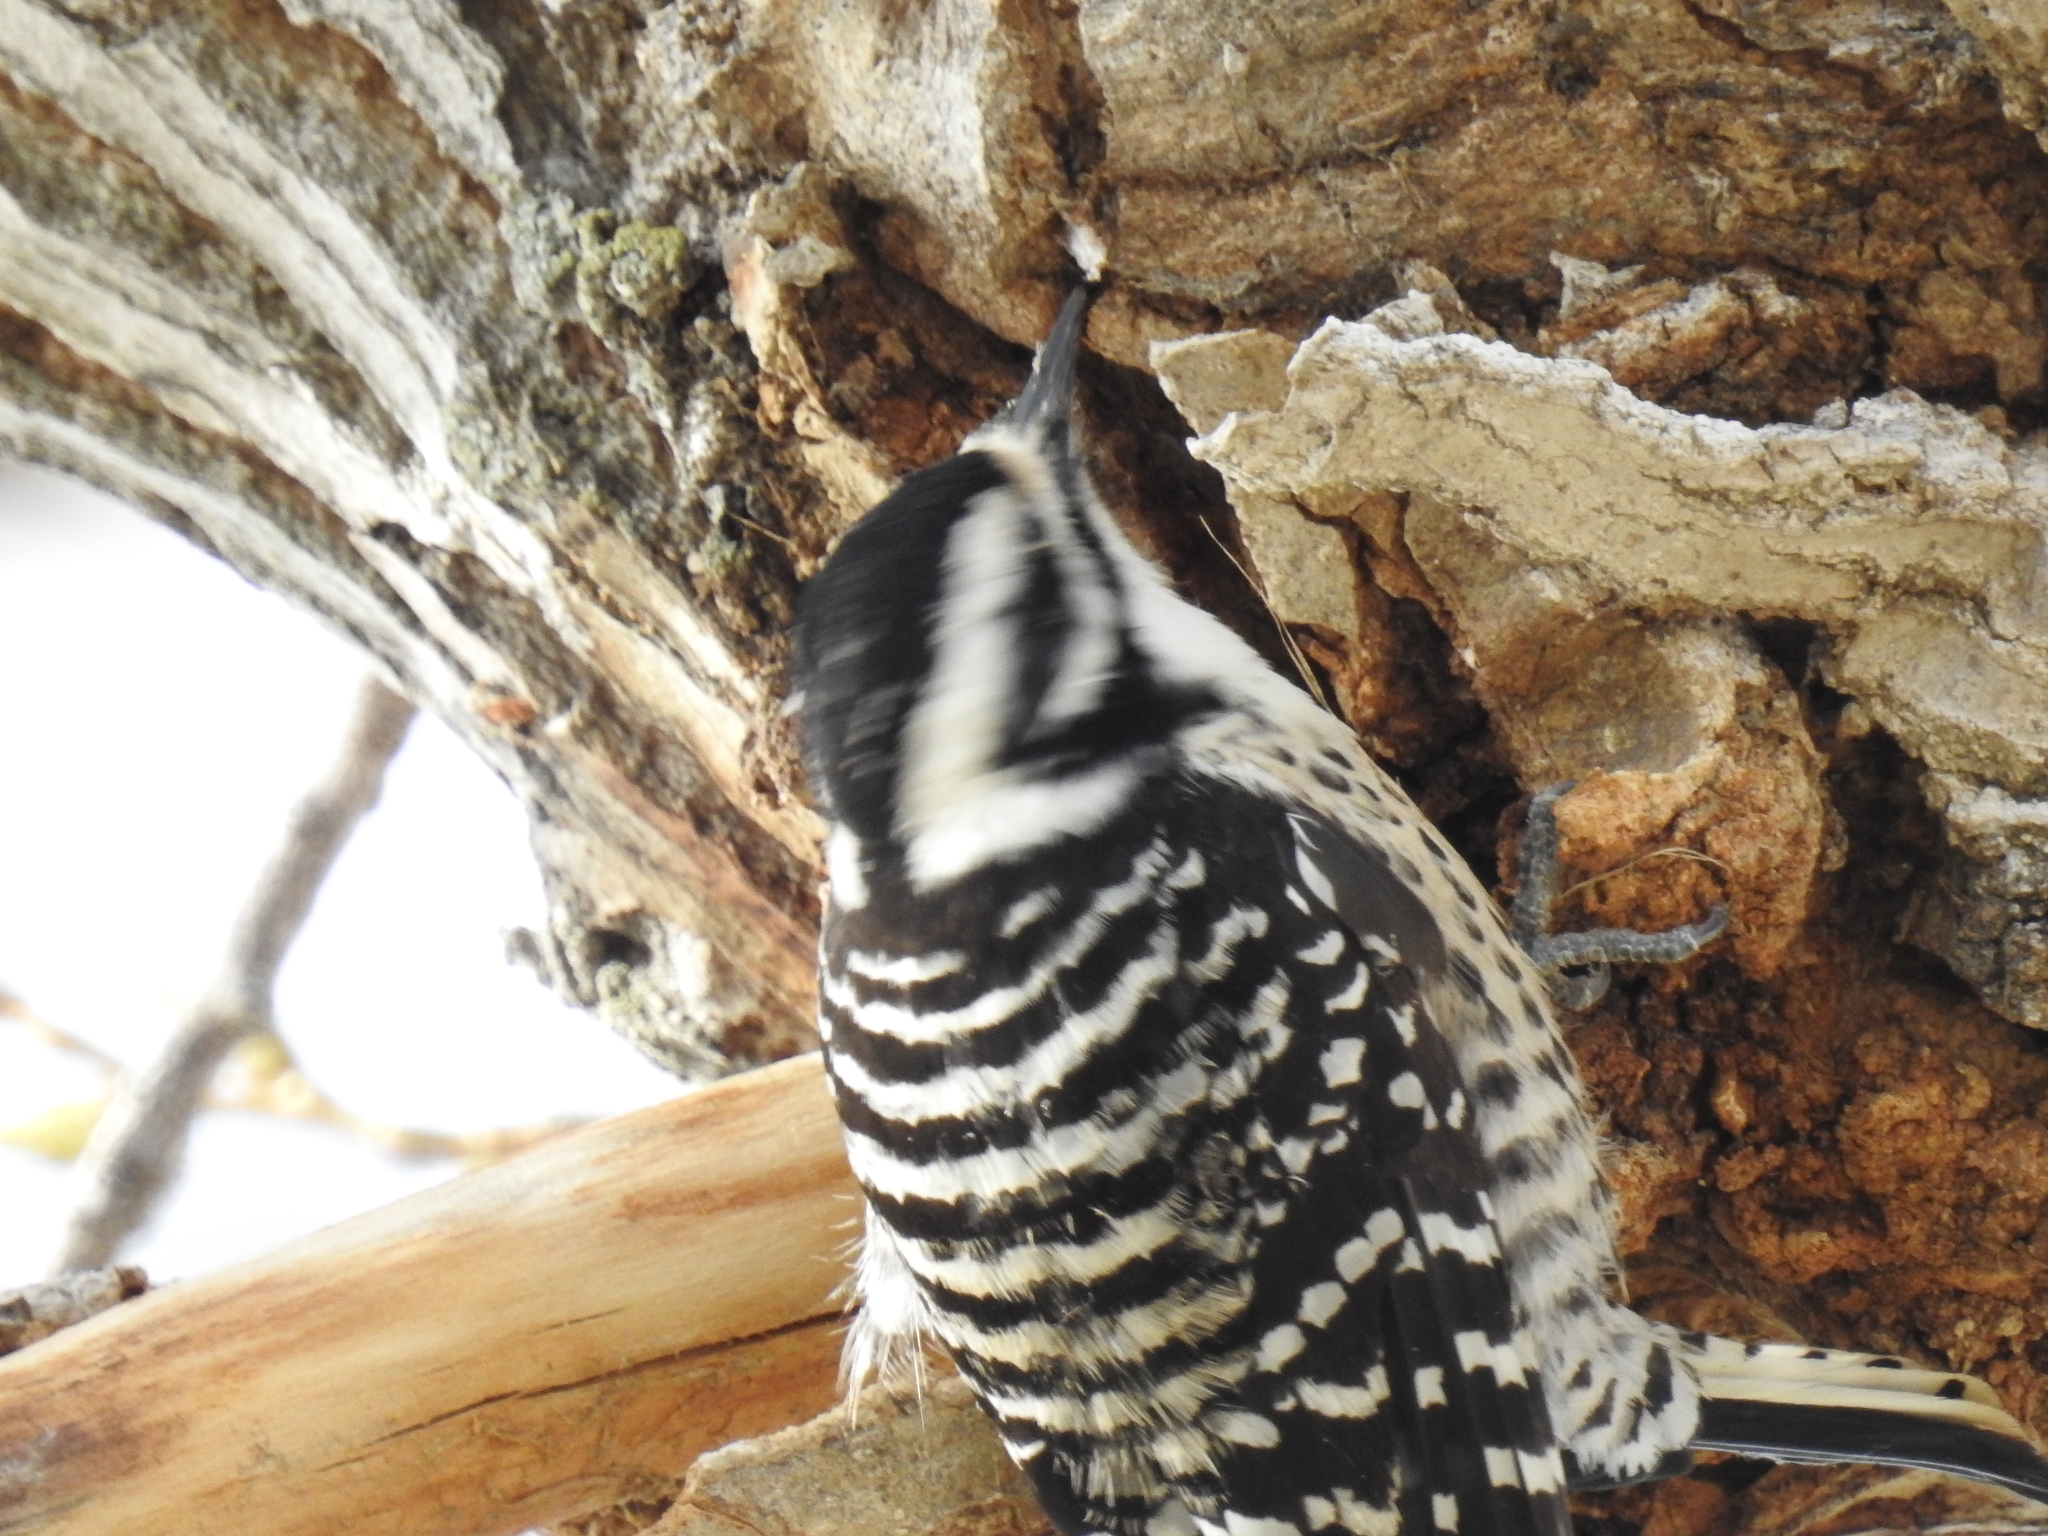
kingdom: Animalia
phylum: Chordata
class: Aves
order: Piciformes
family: Picidae
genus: Dryobates
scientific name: Dryobates nuttallii
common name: Nuttall's woodpecker
